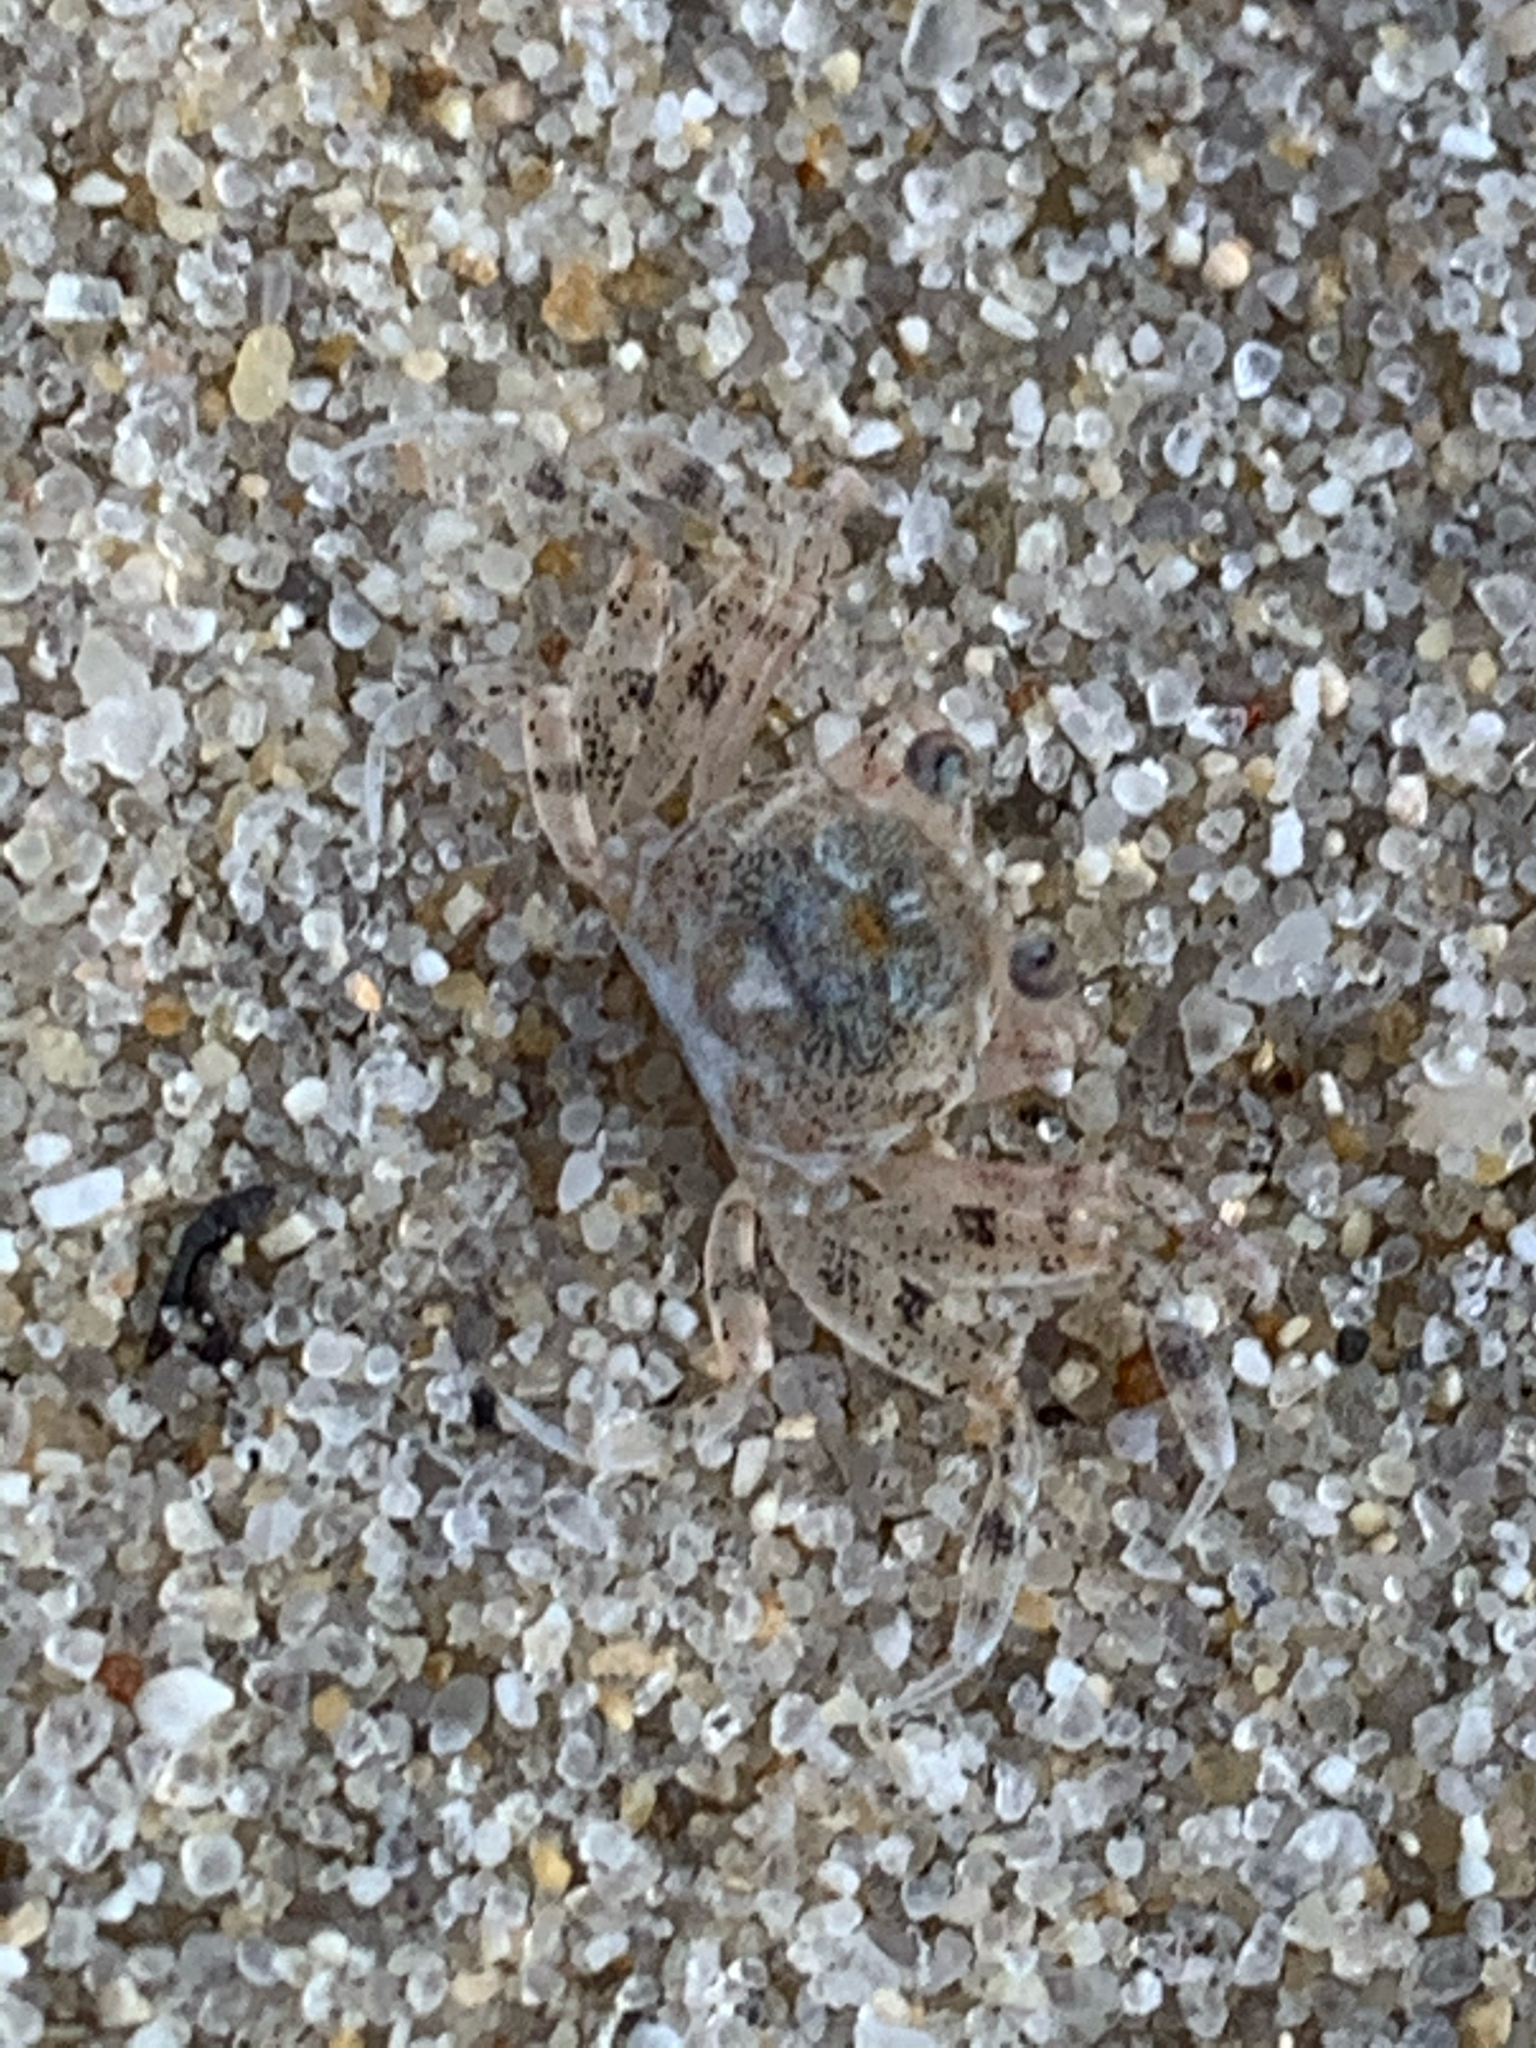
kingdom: Animalia
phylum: Arthropoda
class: Malacostraca
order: Decapoda
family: Ocypodidae
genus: Ocypode
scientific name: Ocypode quadrata
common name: Ghost crab
